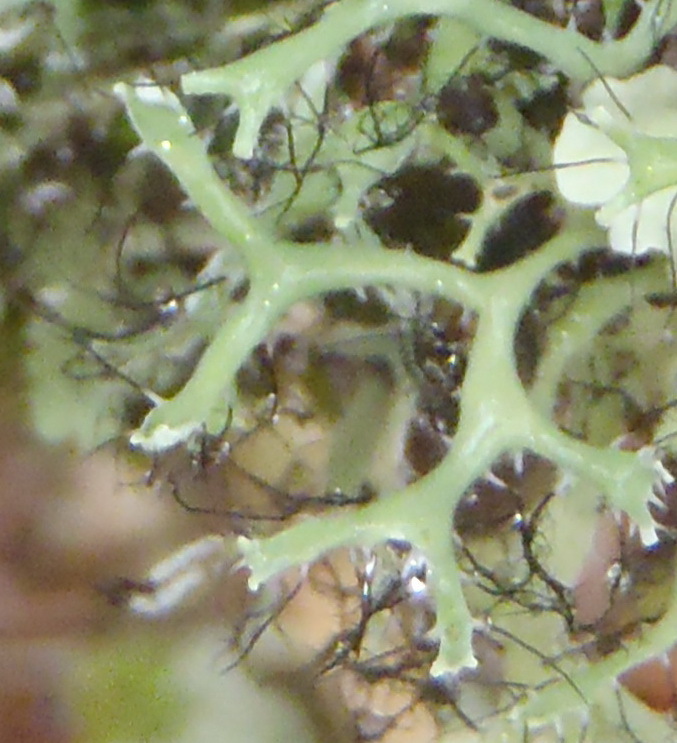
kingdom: Fungi
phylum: Ascomycota
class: Lecanoromycetes
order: Caliciales
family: Physciaceae
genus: Leucodermia
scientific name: Leucodermia leucomelos
